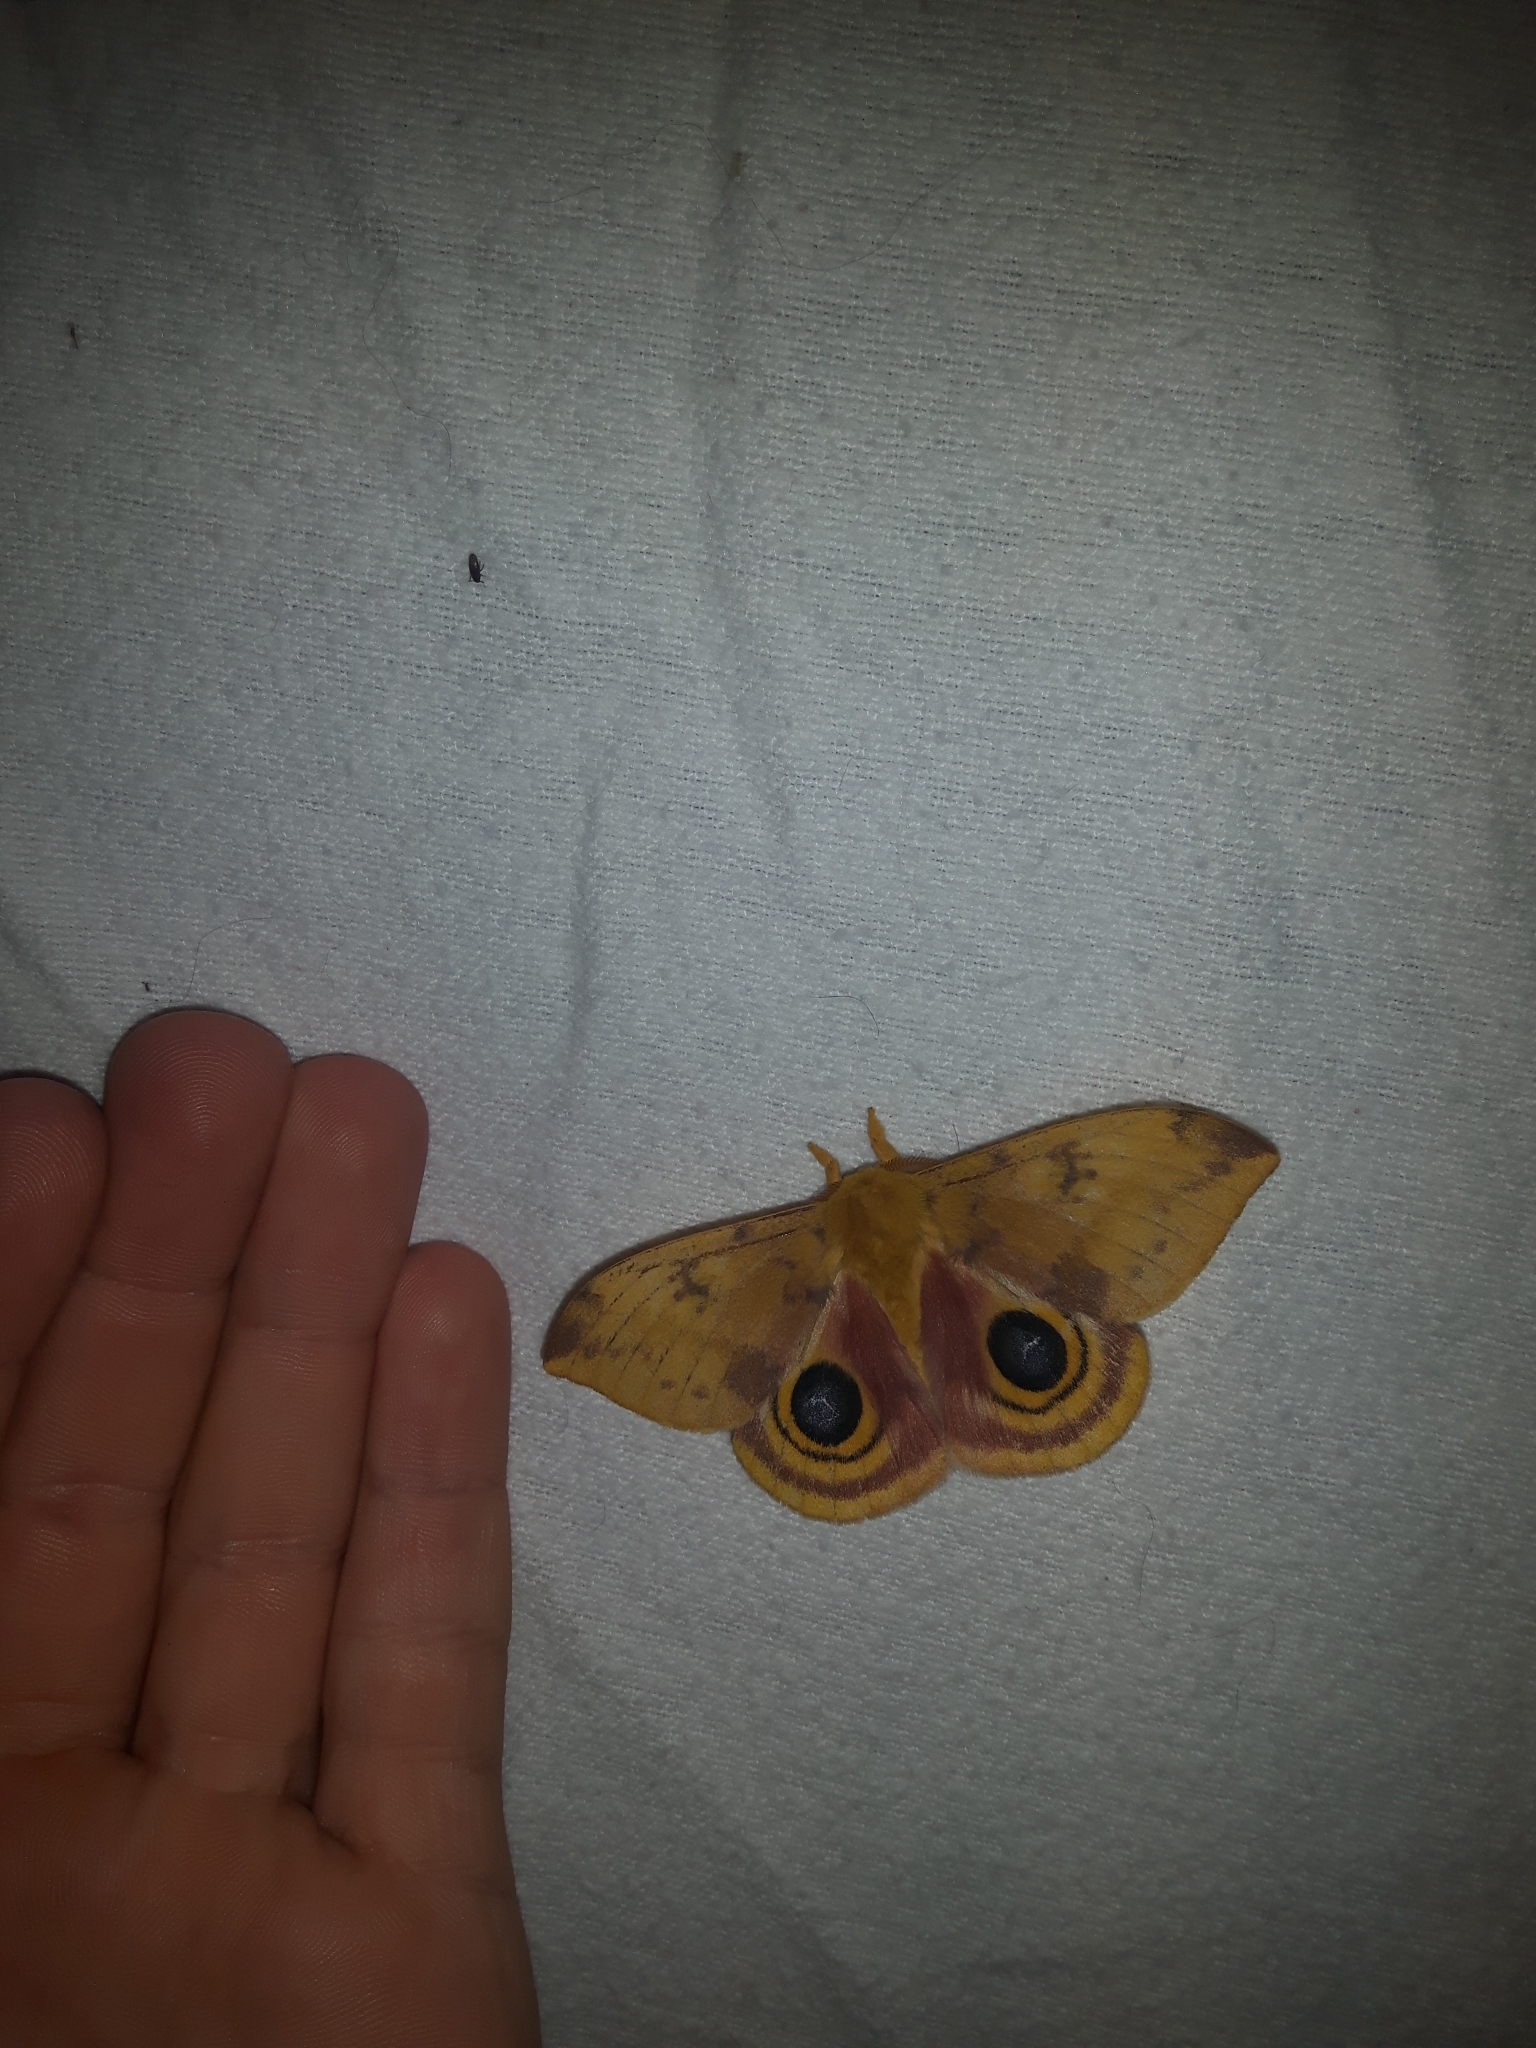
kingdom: Animalia
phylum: Arthropoda
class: Insecta
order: Lepidoptera
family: Saturniidae
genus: Automeris
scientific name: Automeris io
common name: Io moth
